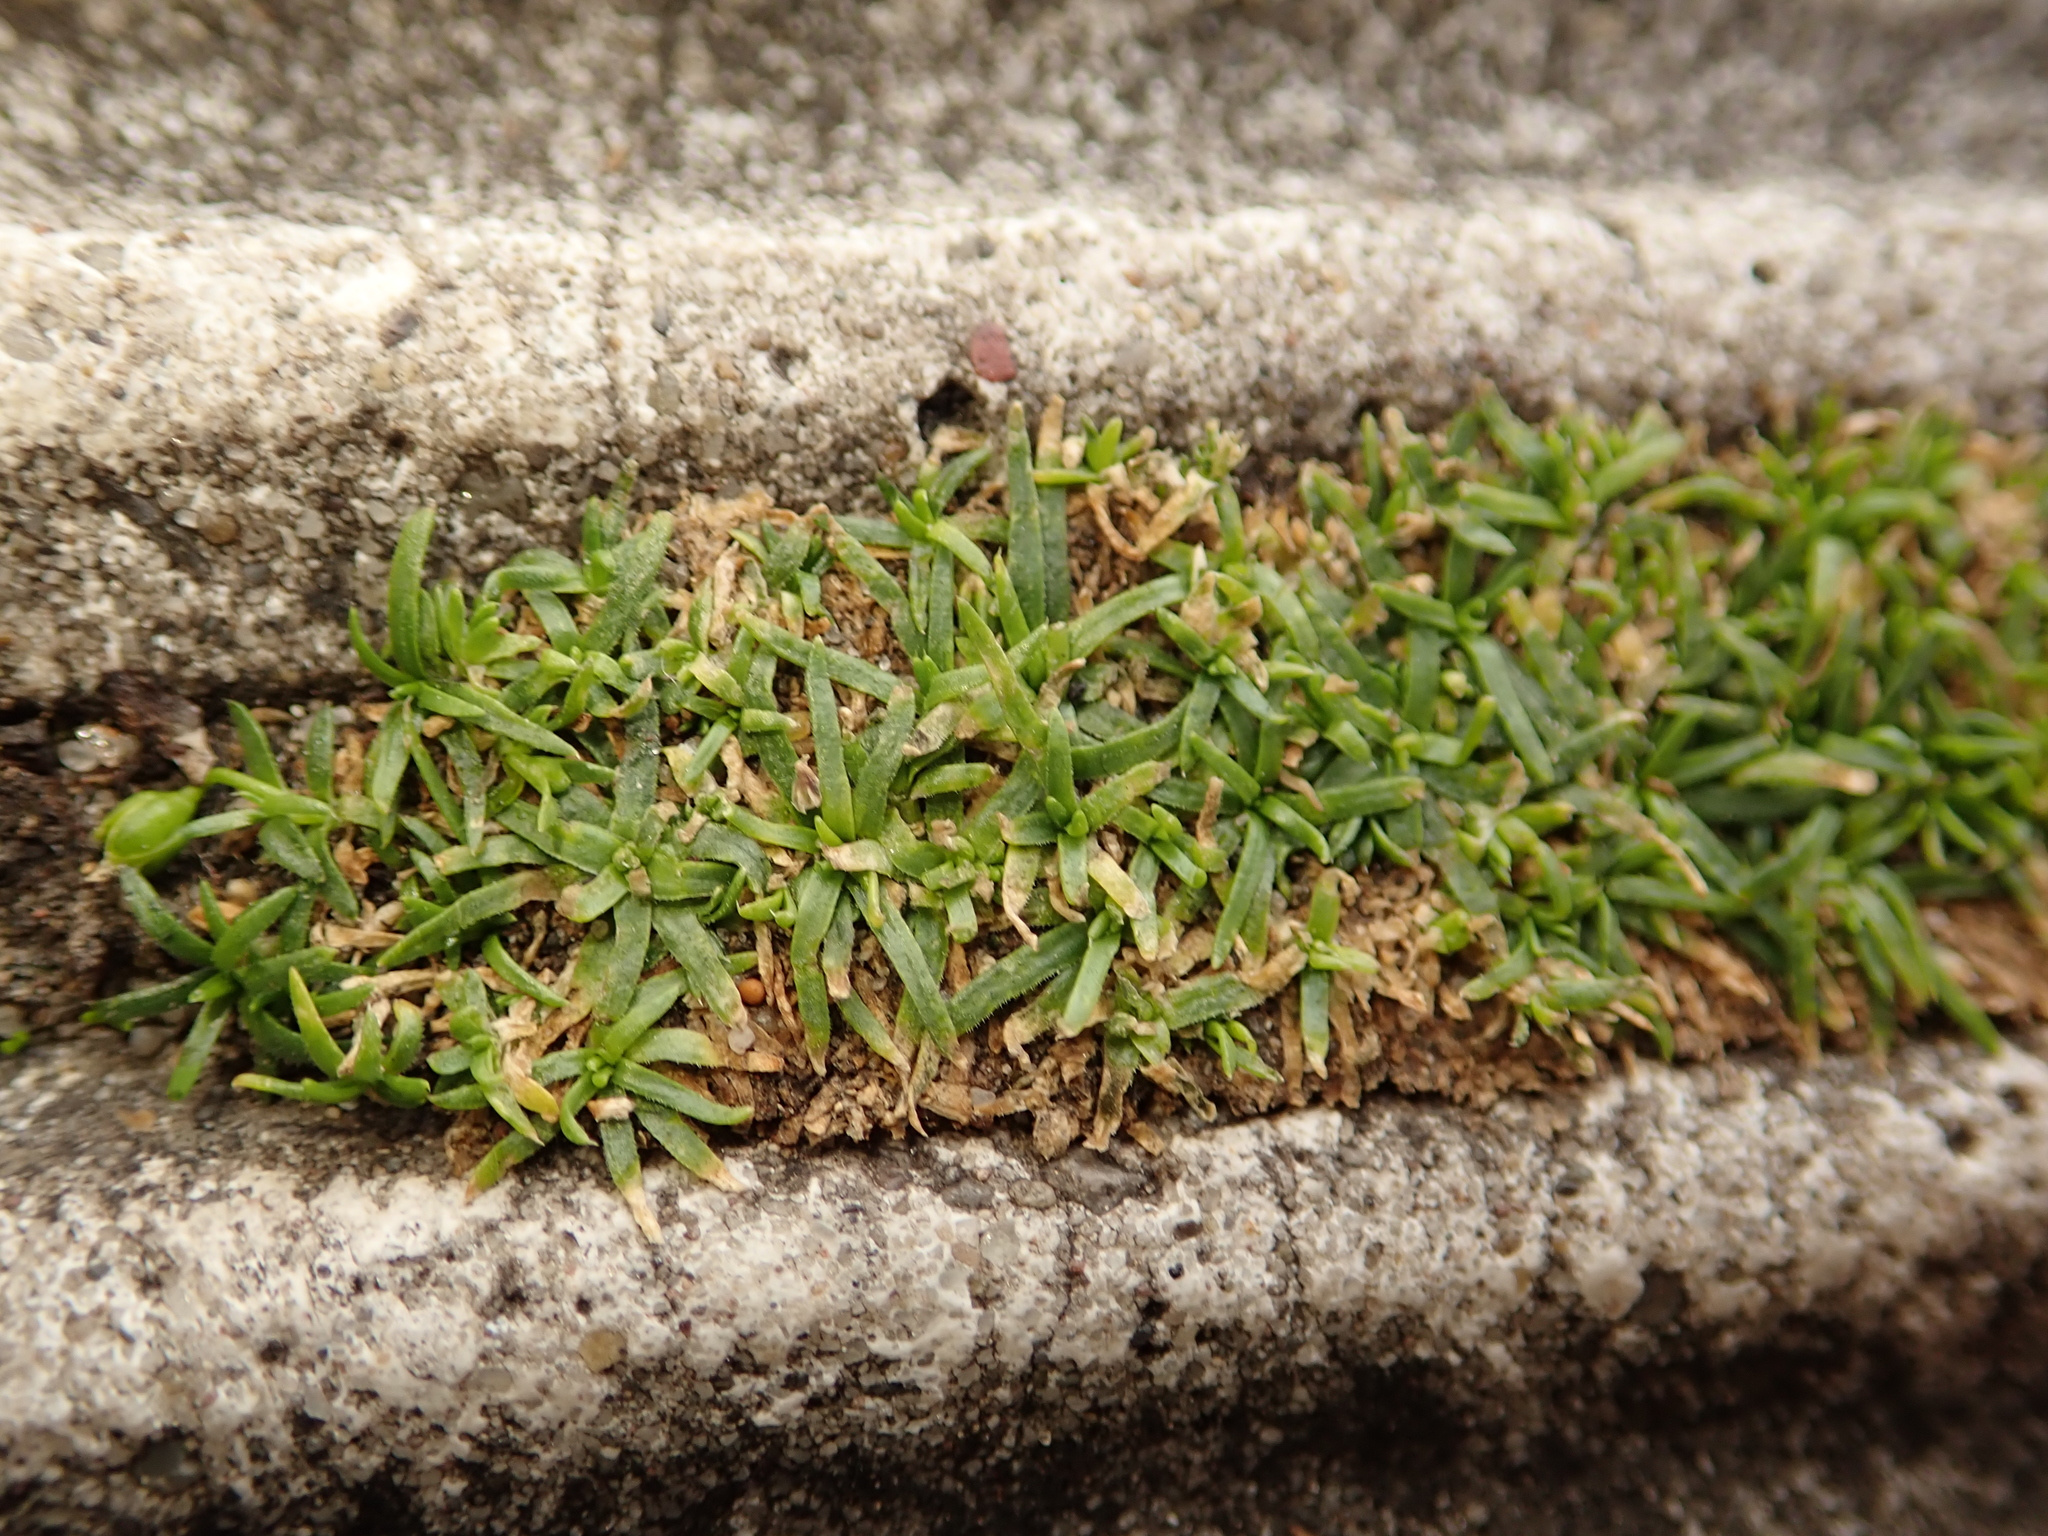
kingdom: Plantae
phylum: Tracheophyta
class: Magnoliopsida
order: Caryophyllales
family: Caryophyllaceae
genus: Sagina
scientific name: Sagina procumbens
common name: Procumbent pearlwort
